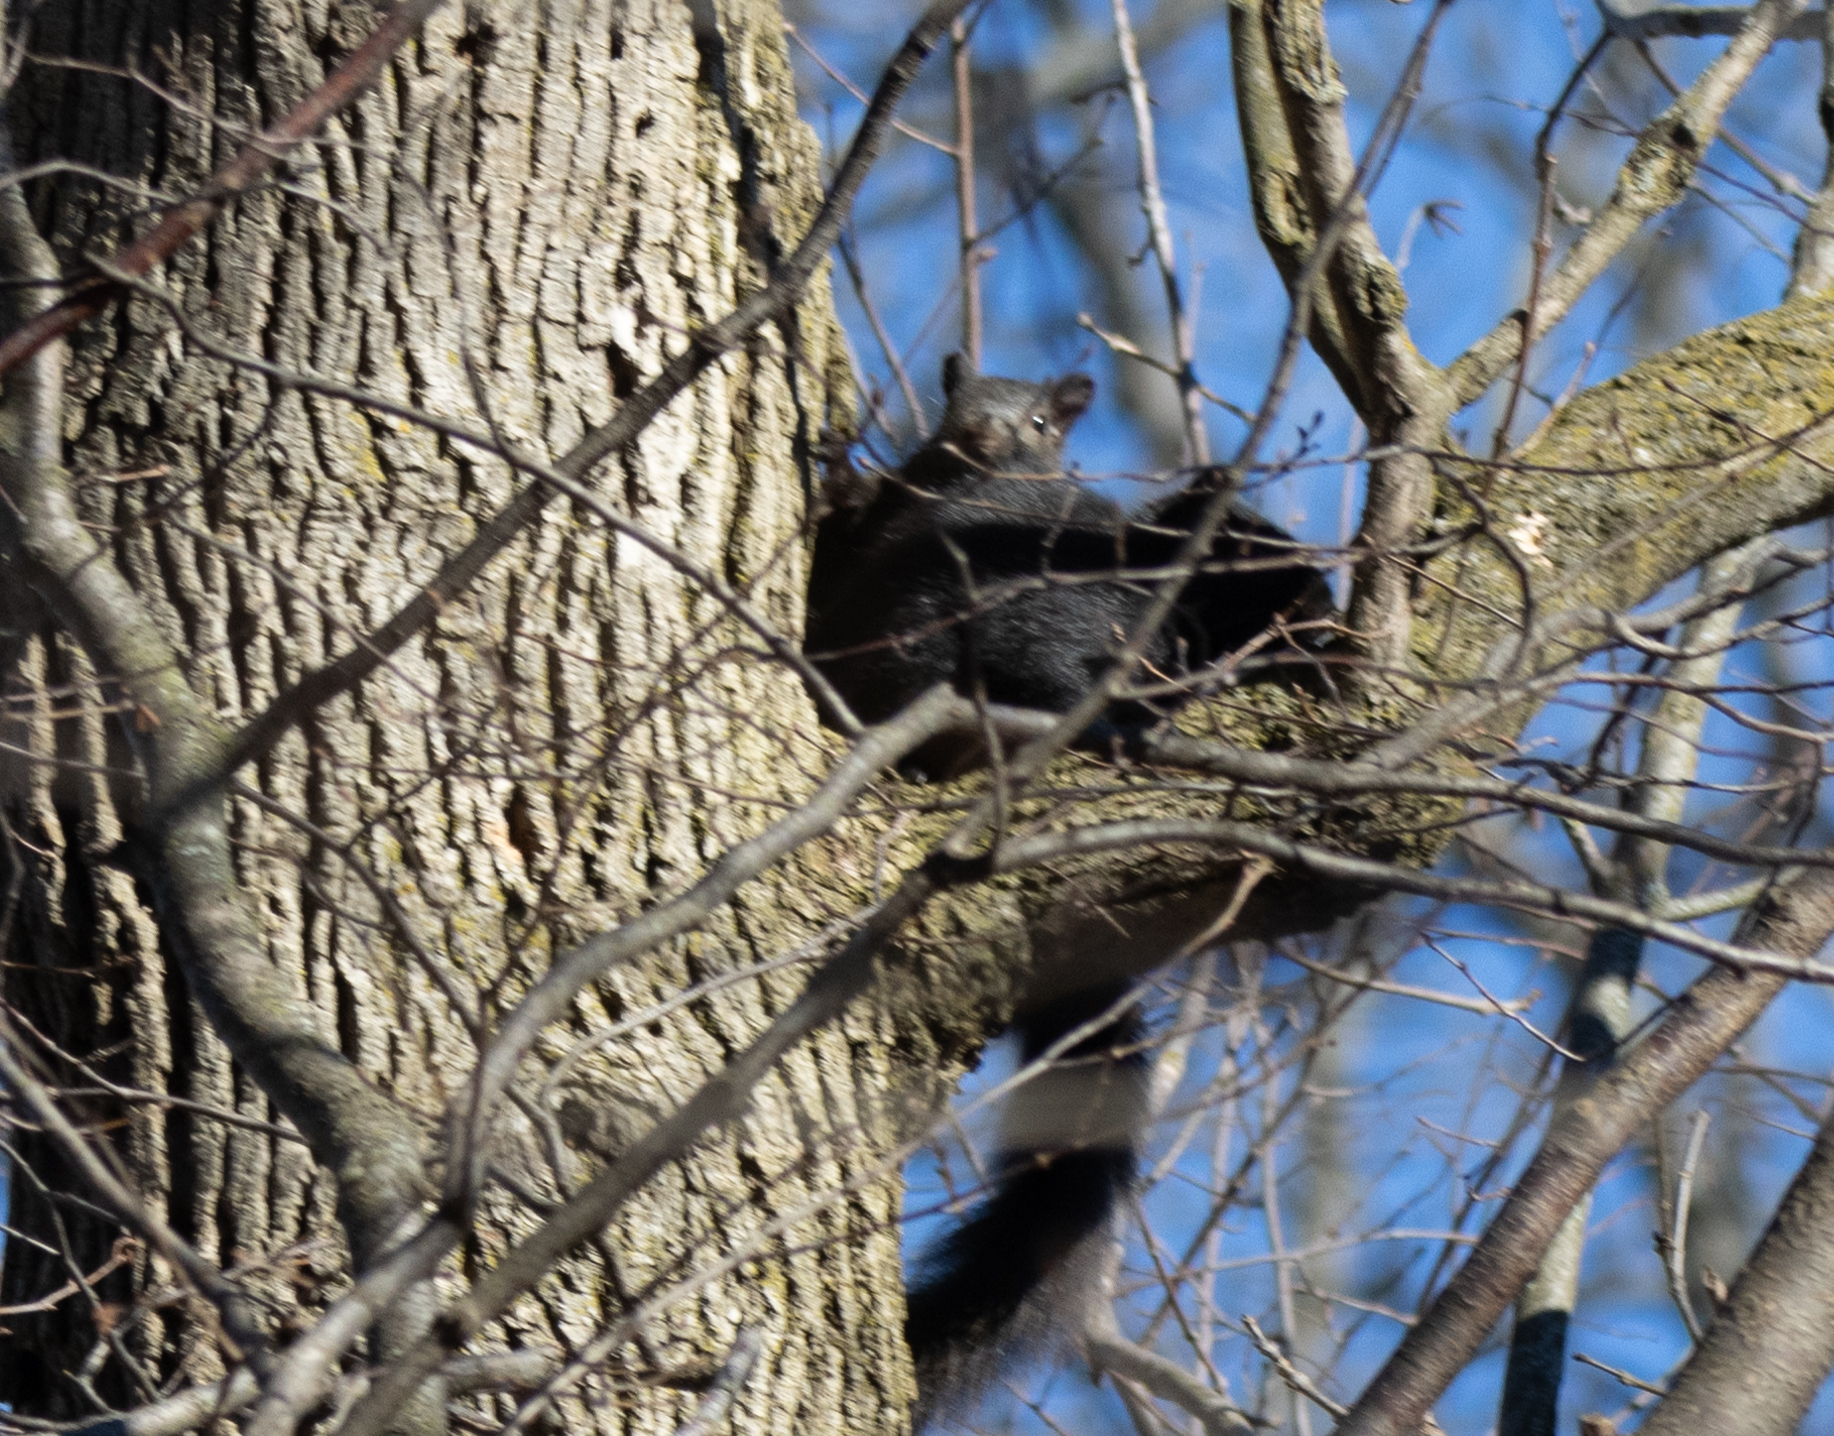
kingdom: Animalia
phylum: Chordata
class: Mammalia
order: Rodentia
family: Sciuridae
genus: Sciurus
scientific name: Sciurus carolinensis
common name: Eastern gray squirrel
